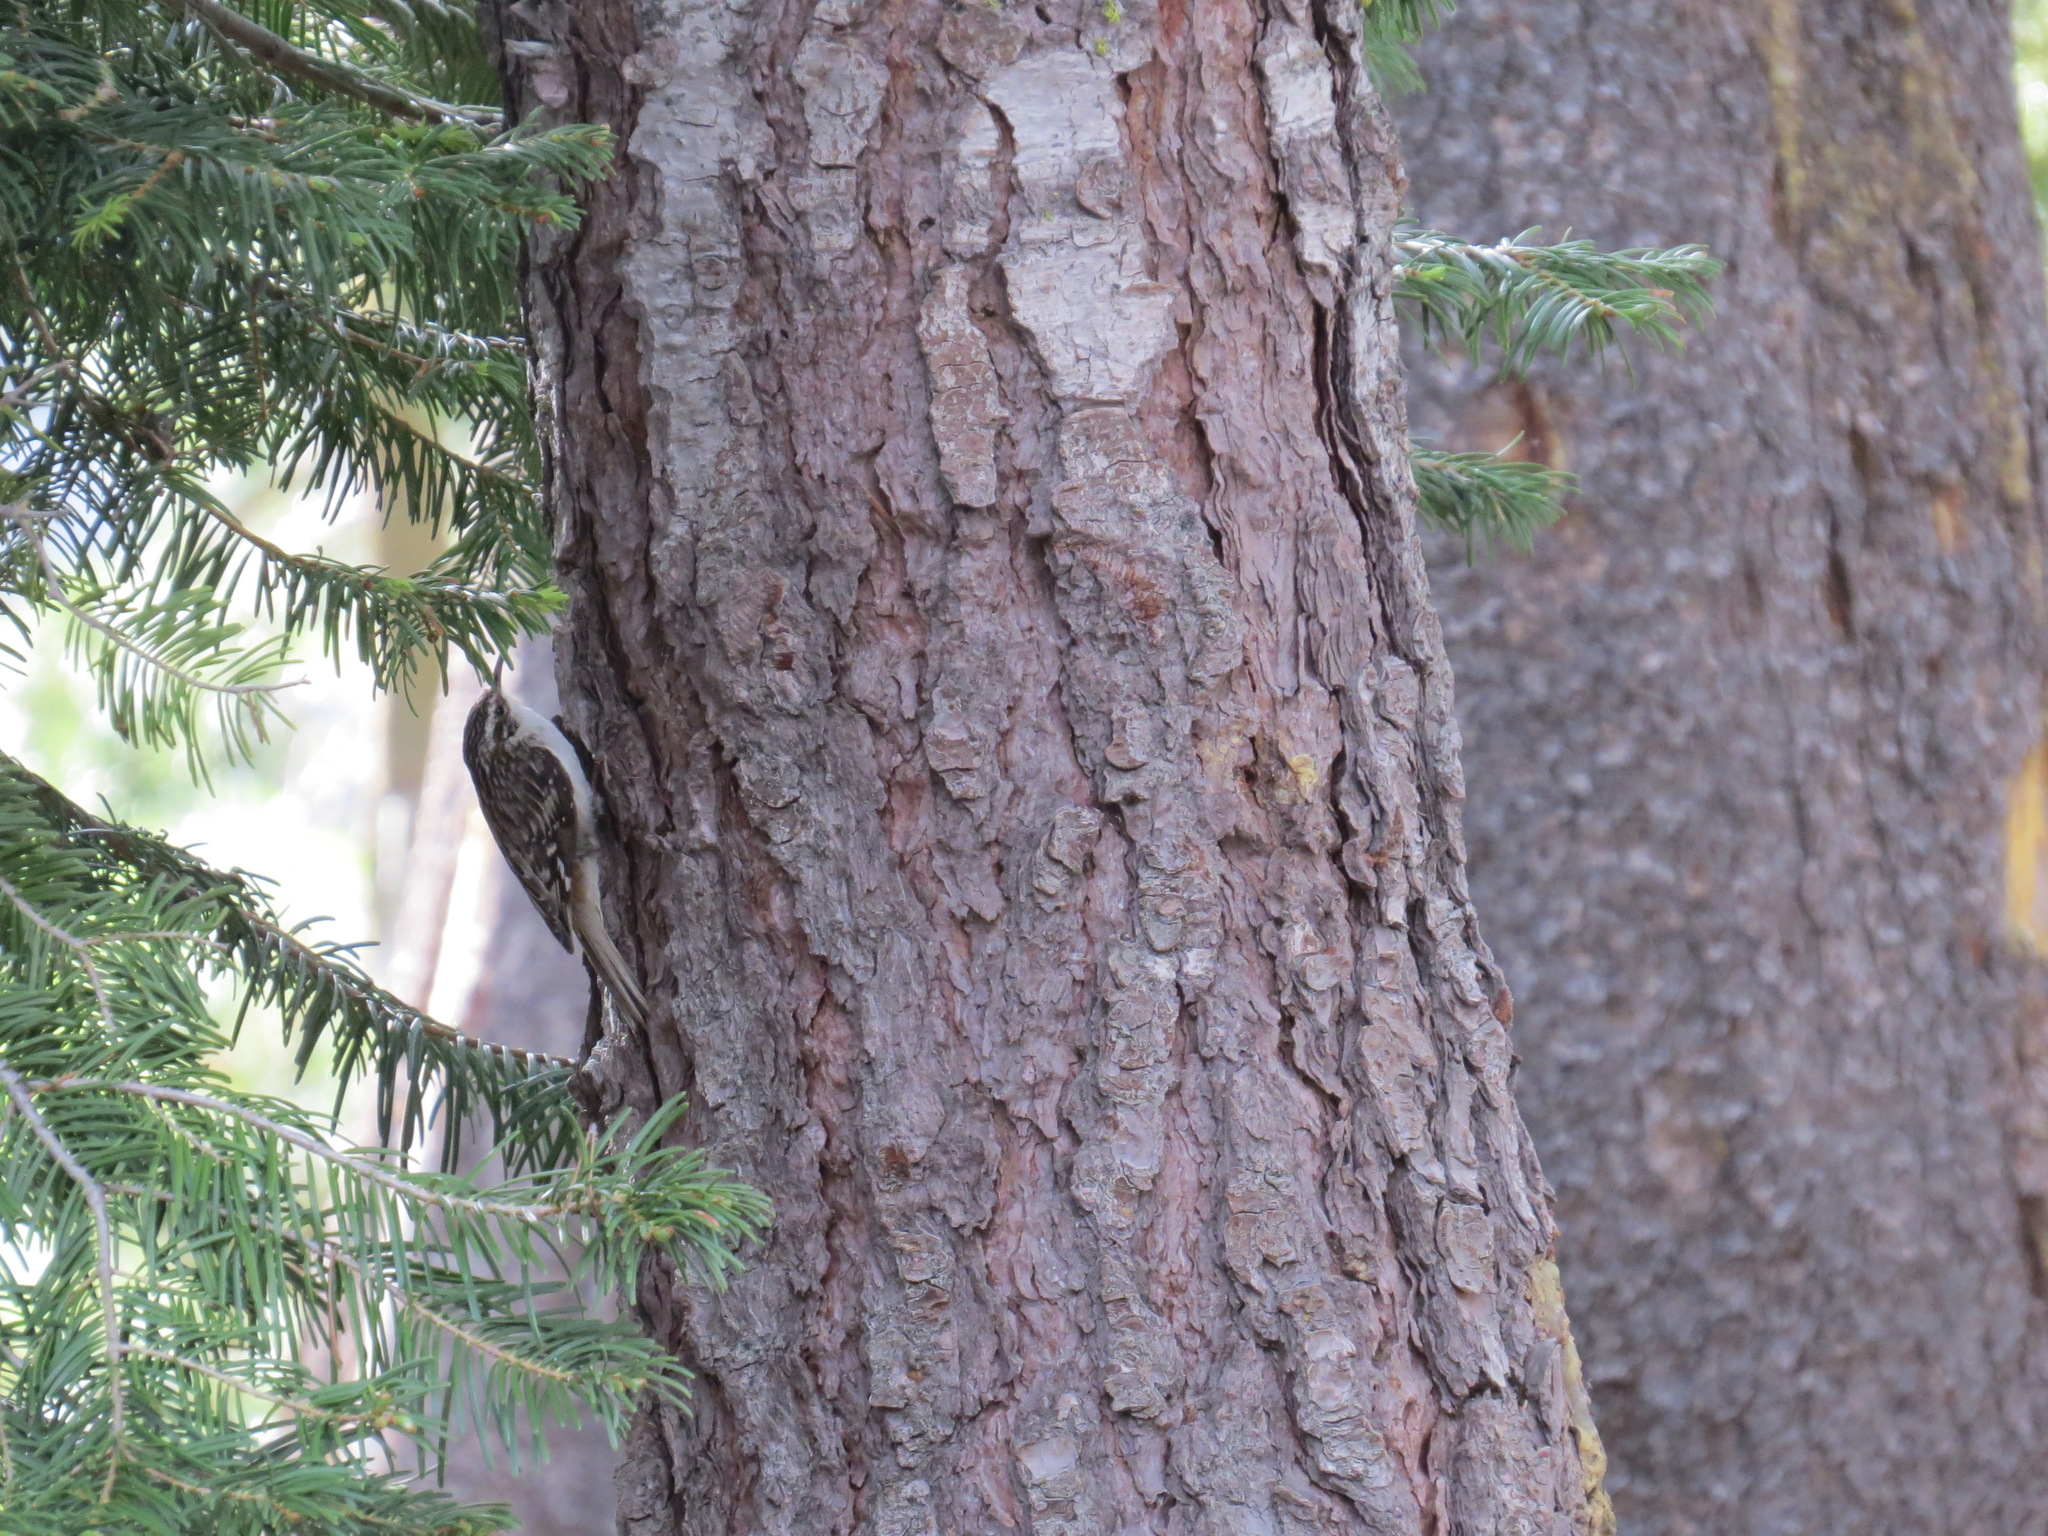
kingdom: Animalia
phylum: Chordata
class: Aves
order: Passeriformes
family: Certhiidae
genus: Certhia
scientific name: Certhia americana
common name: Brown creeper
